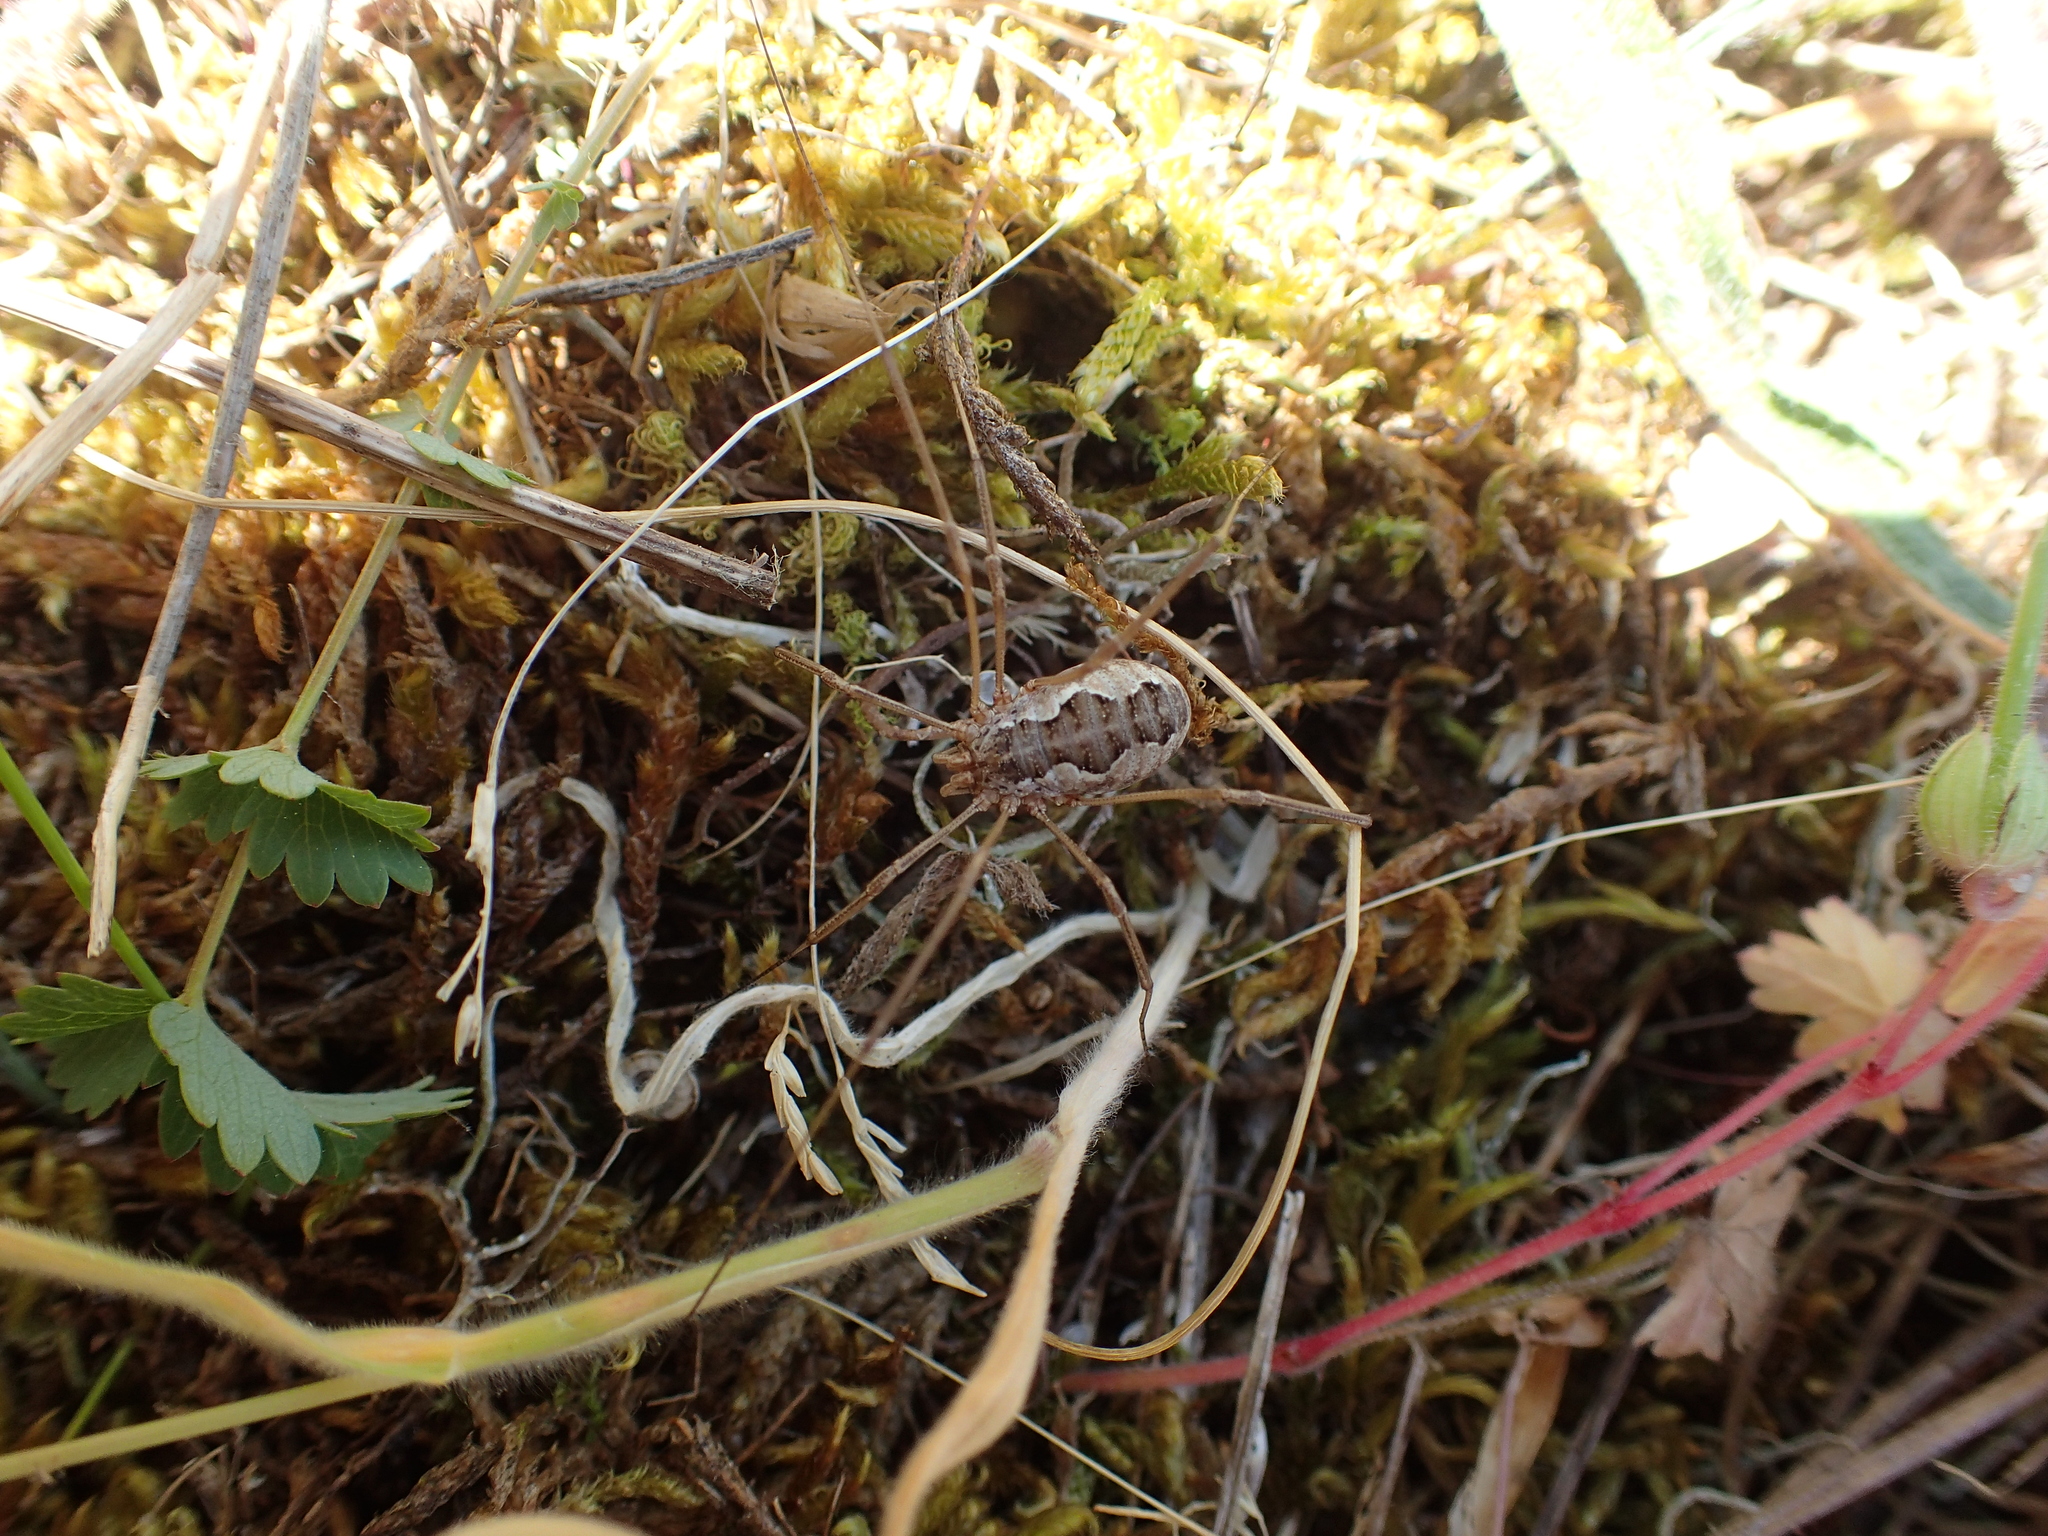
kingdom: Animalia
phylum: Arthropoda
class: Arachnida
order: Opiliones
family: Phalangiidae
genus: Phalangium
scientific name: Phalangium opilio
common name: Daddy longleg
